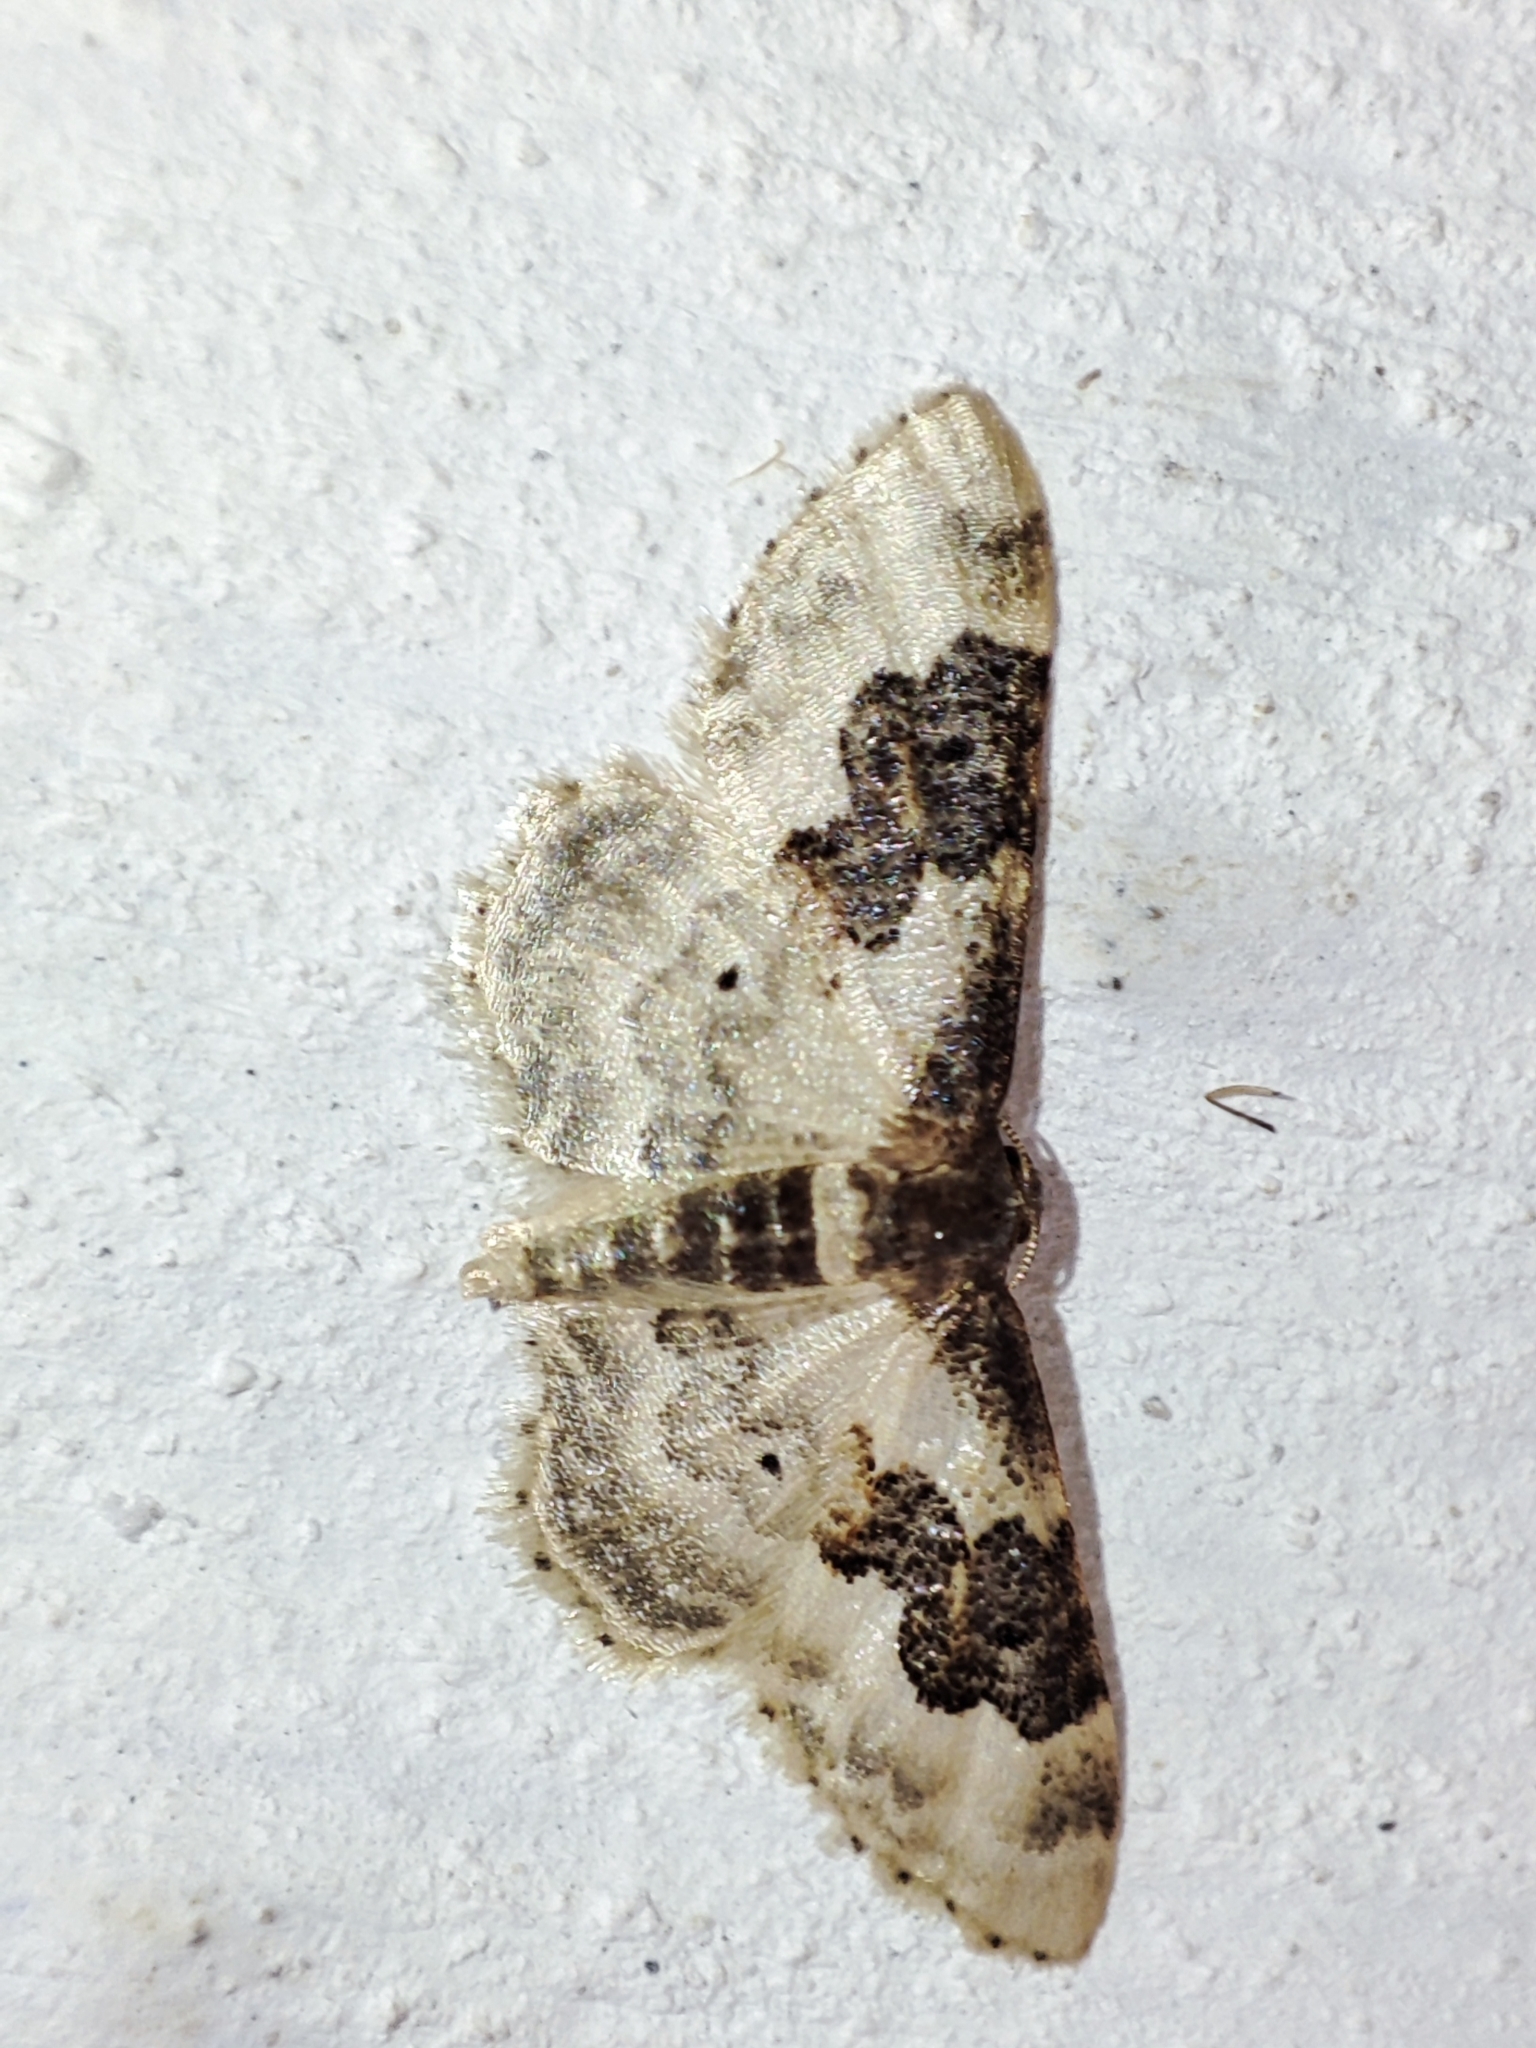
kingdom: Animalia
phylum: Arthropoda
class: Insecta
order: Lepidoptera
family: Geometridae
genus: Idaea
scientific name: Idaea rusticata
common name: Least carpet
